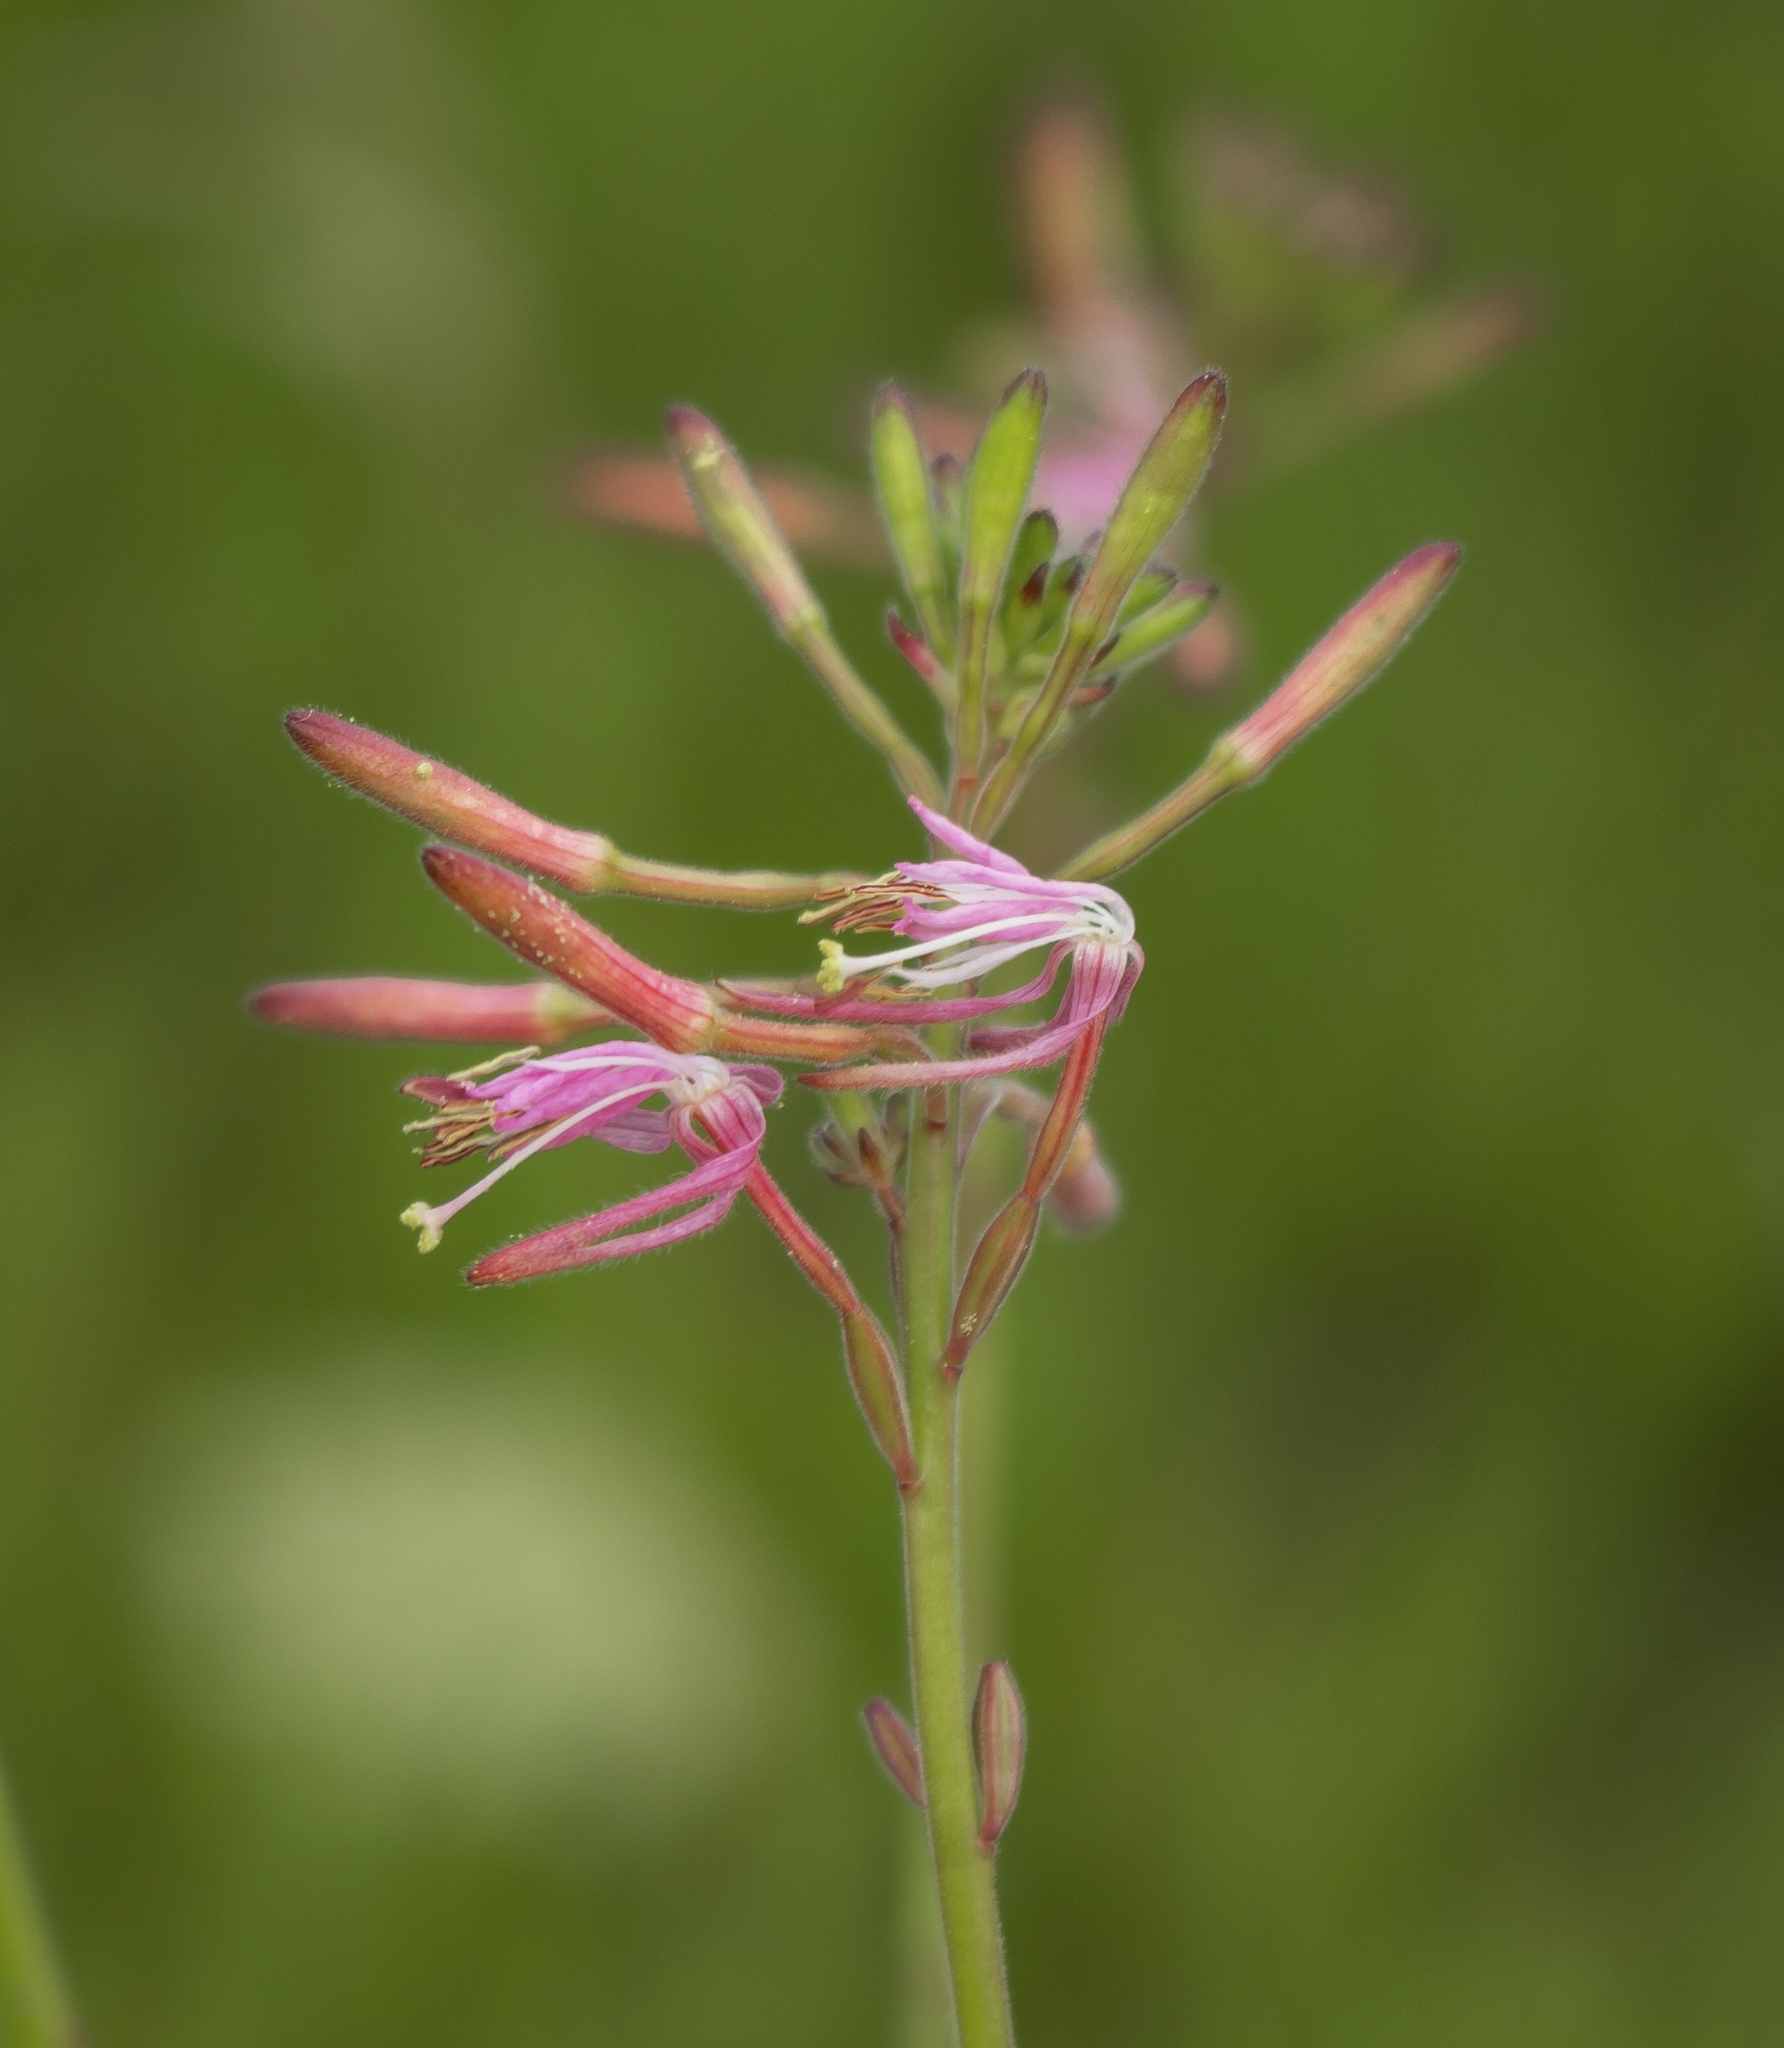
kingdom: Plantae
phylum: Tracheophyta
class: Magnoliopsida
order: Myrtales
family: Onagraceae
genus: Oenothera
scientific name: Oenothera gaura
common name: Biennial beeblossom
